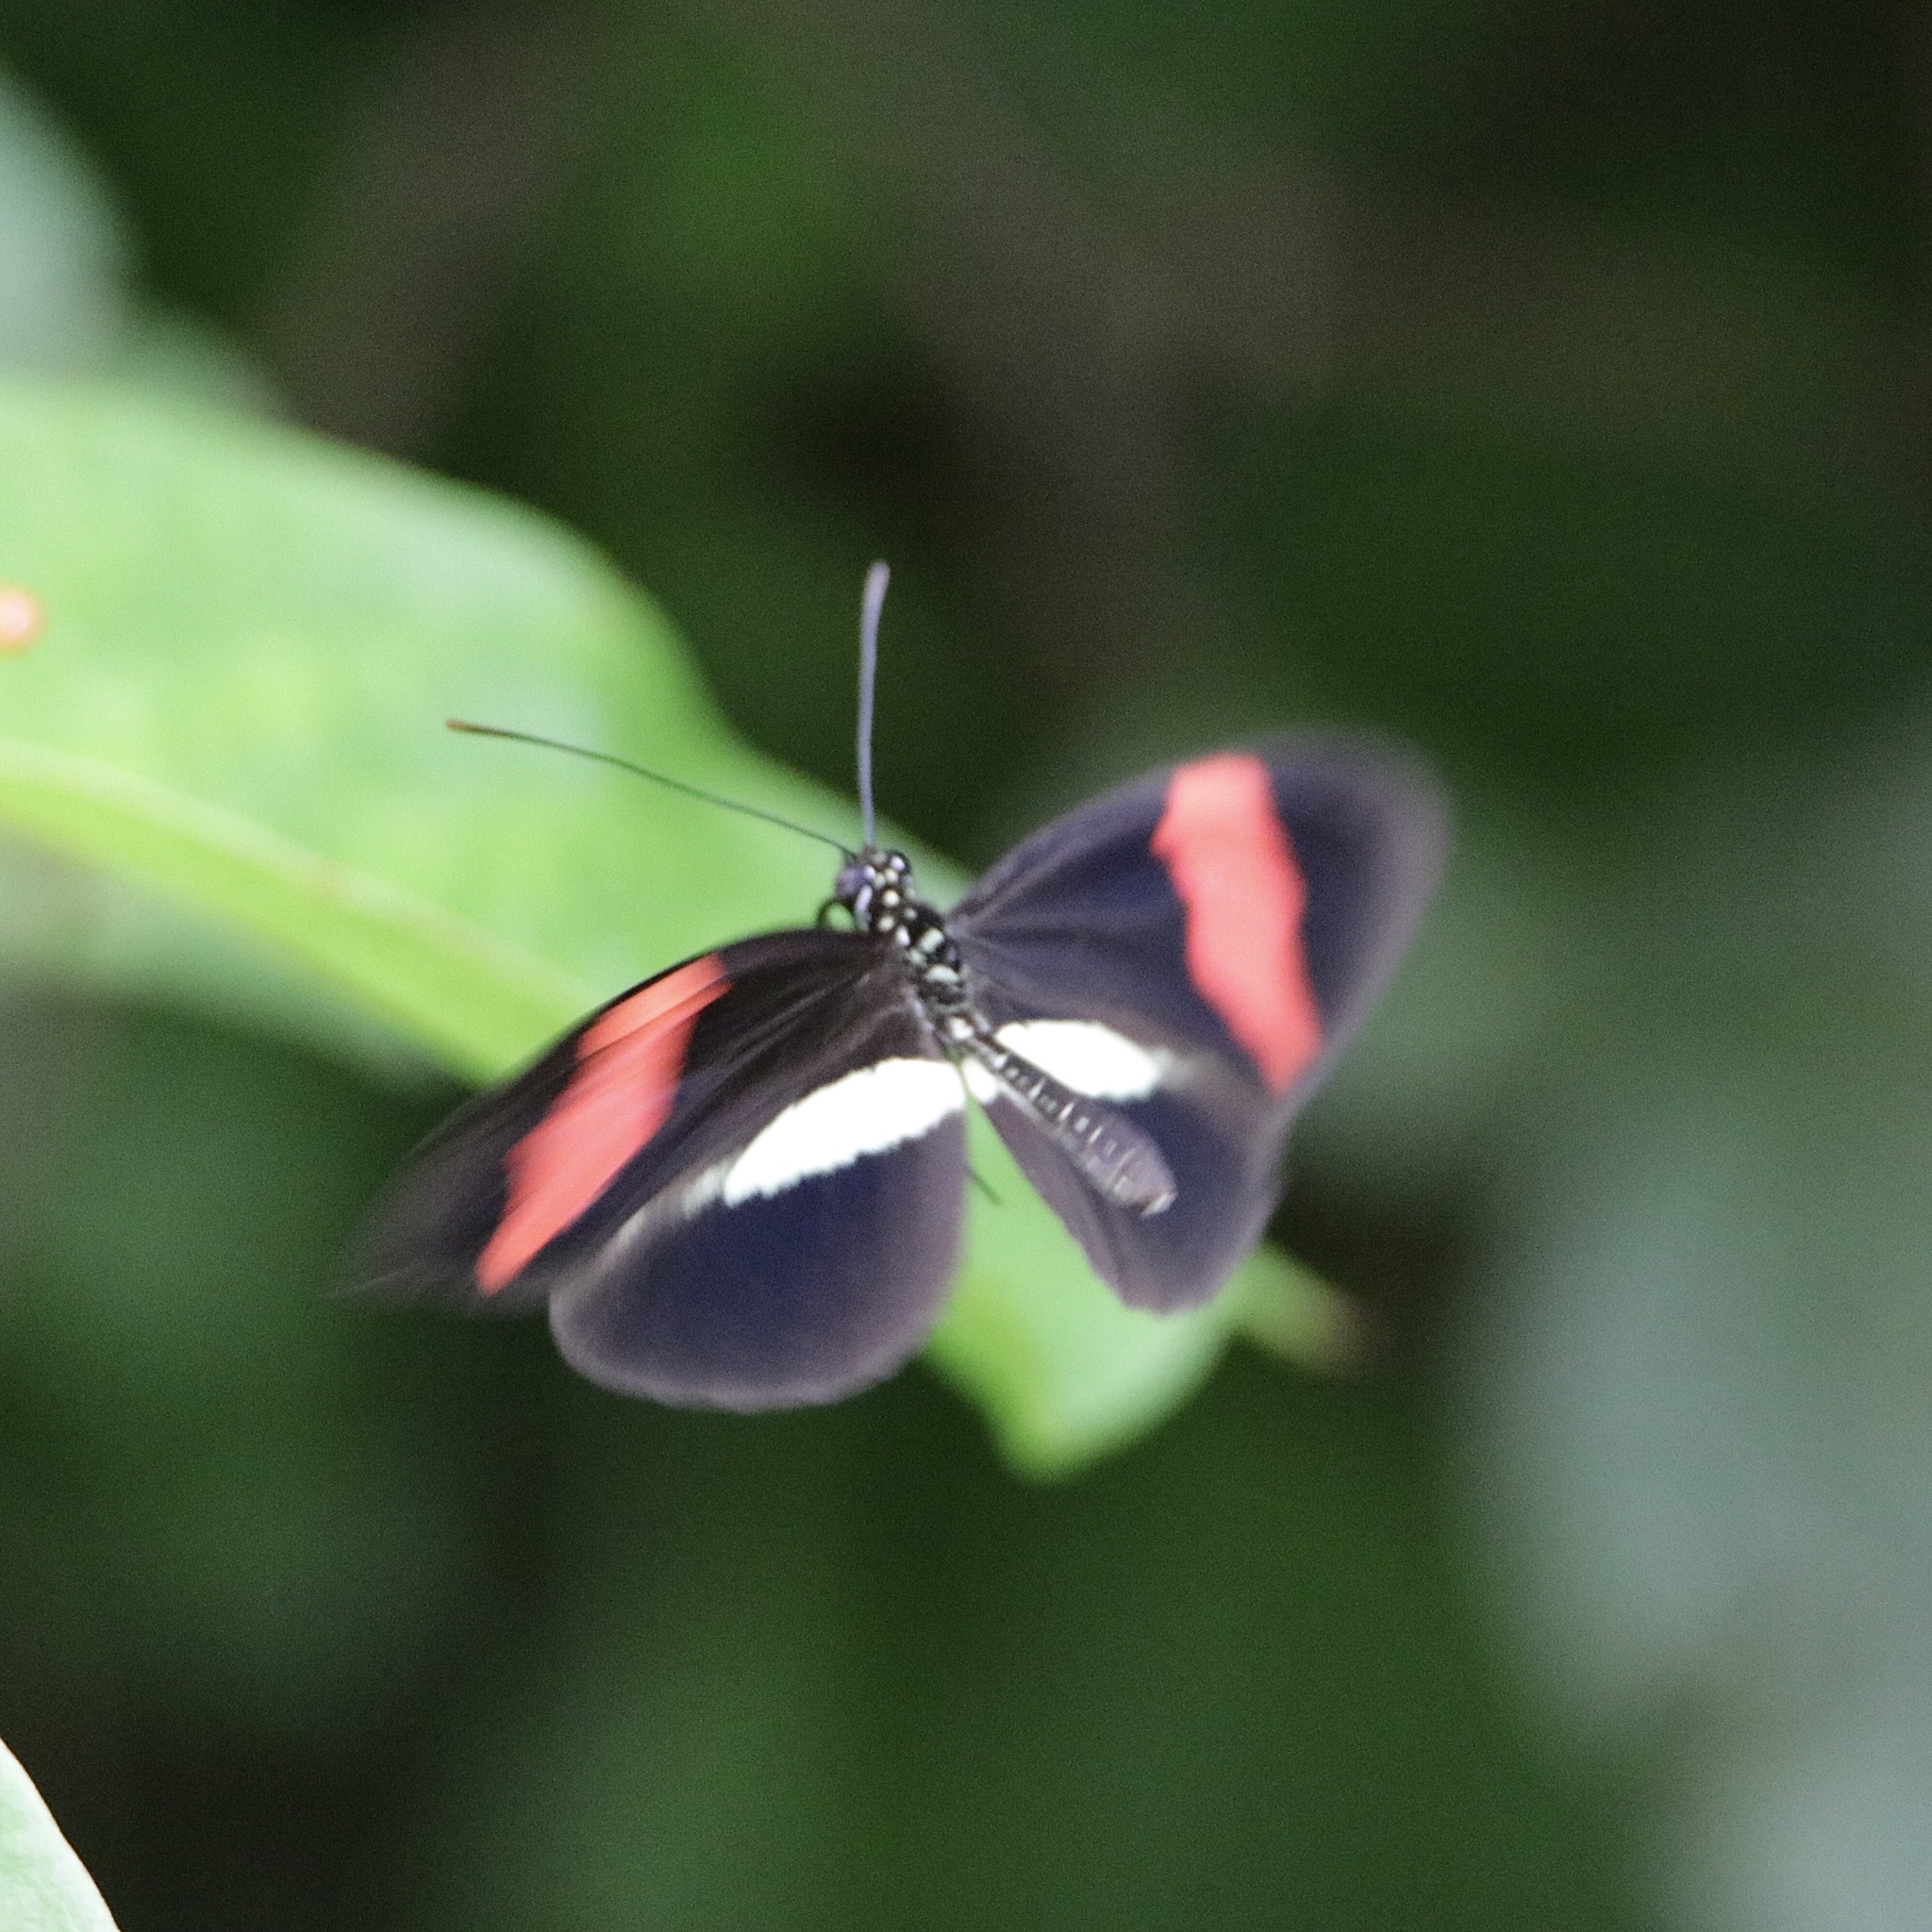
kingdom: Animalia
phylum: Arthropoda
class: Insecta
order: Lepidoptera
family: Nymphalidae
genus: Tirumala
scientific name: Tirumala petiverana
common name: Blue monarch
